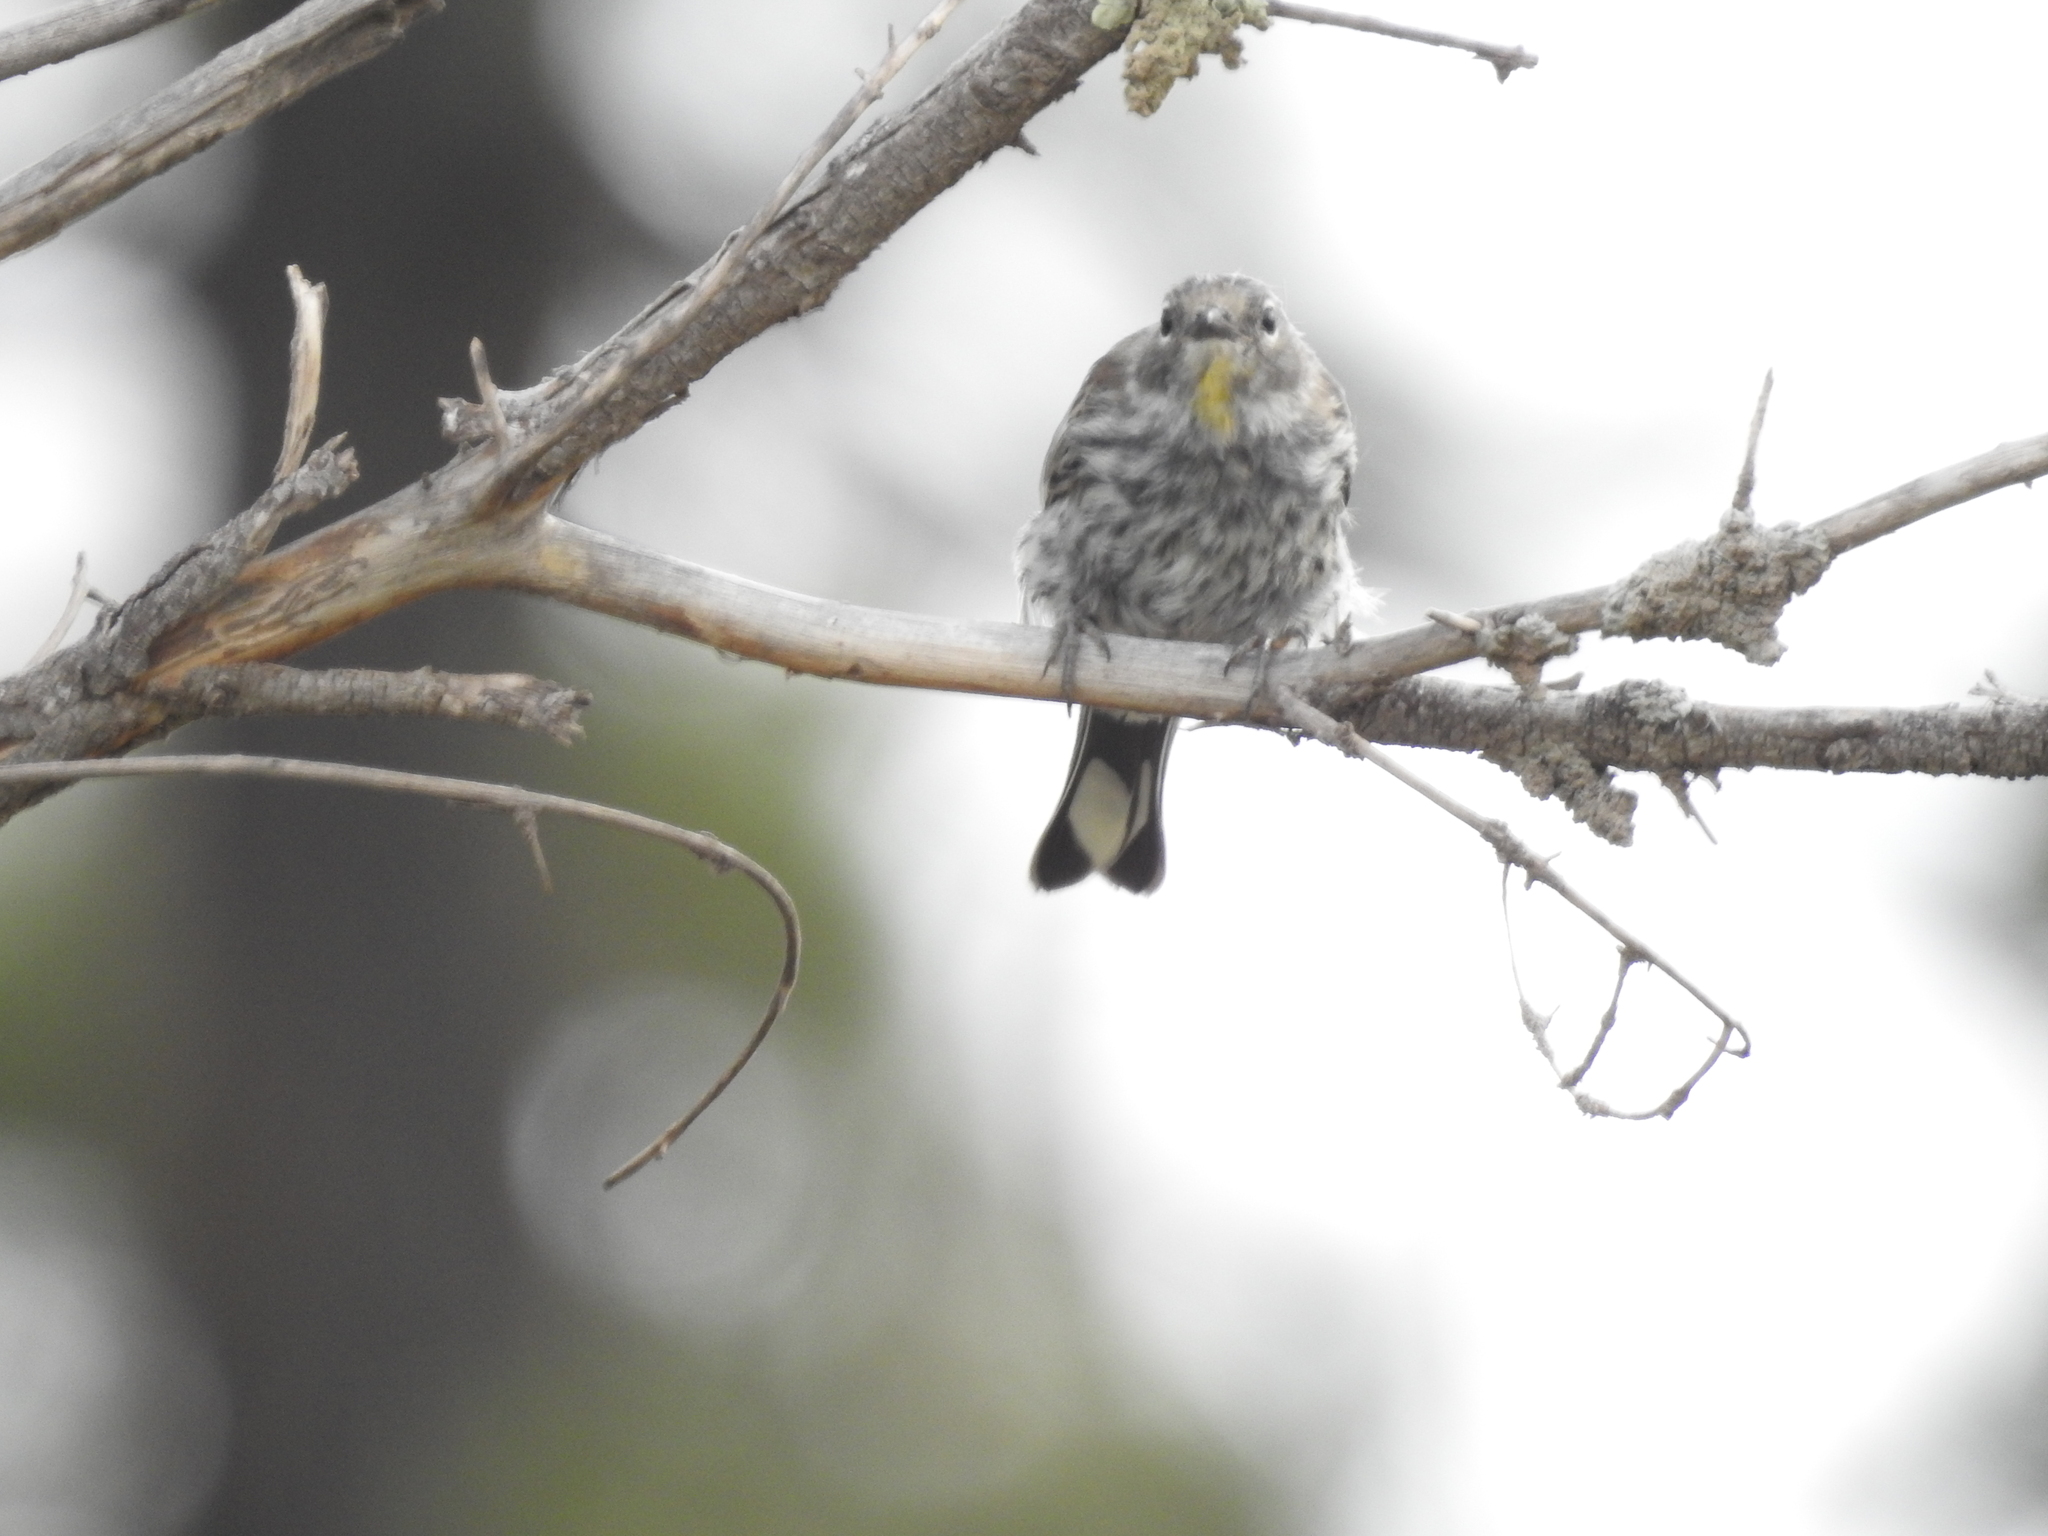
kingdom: Animalia
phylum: Chordata
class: Aves
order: Passeriformes
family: Parulidae
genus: Setophaga
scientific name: Setophaga coronata
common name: Myrtle warbler
